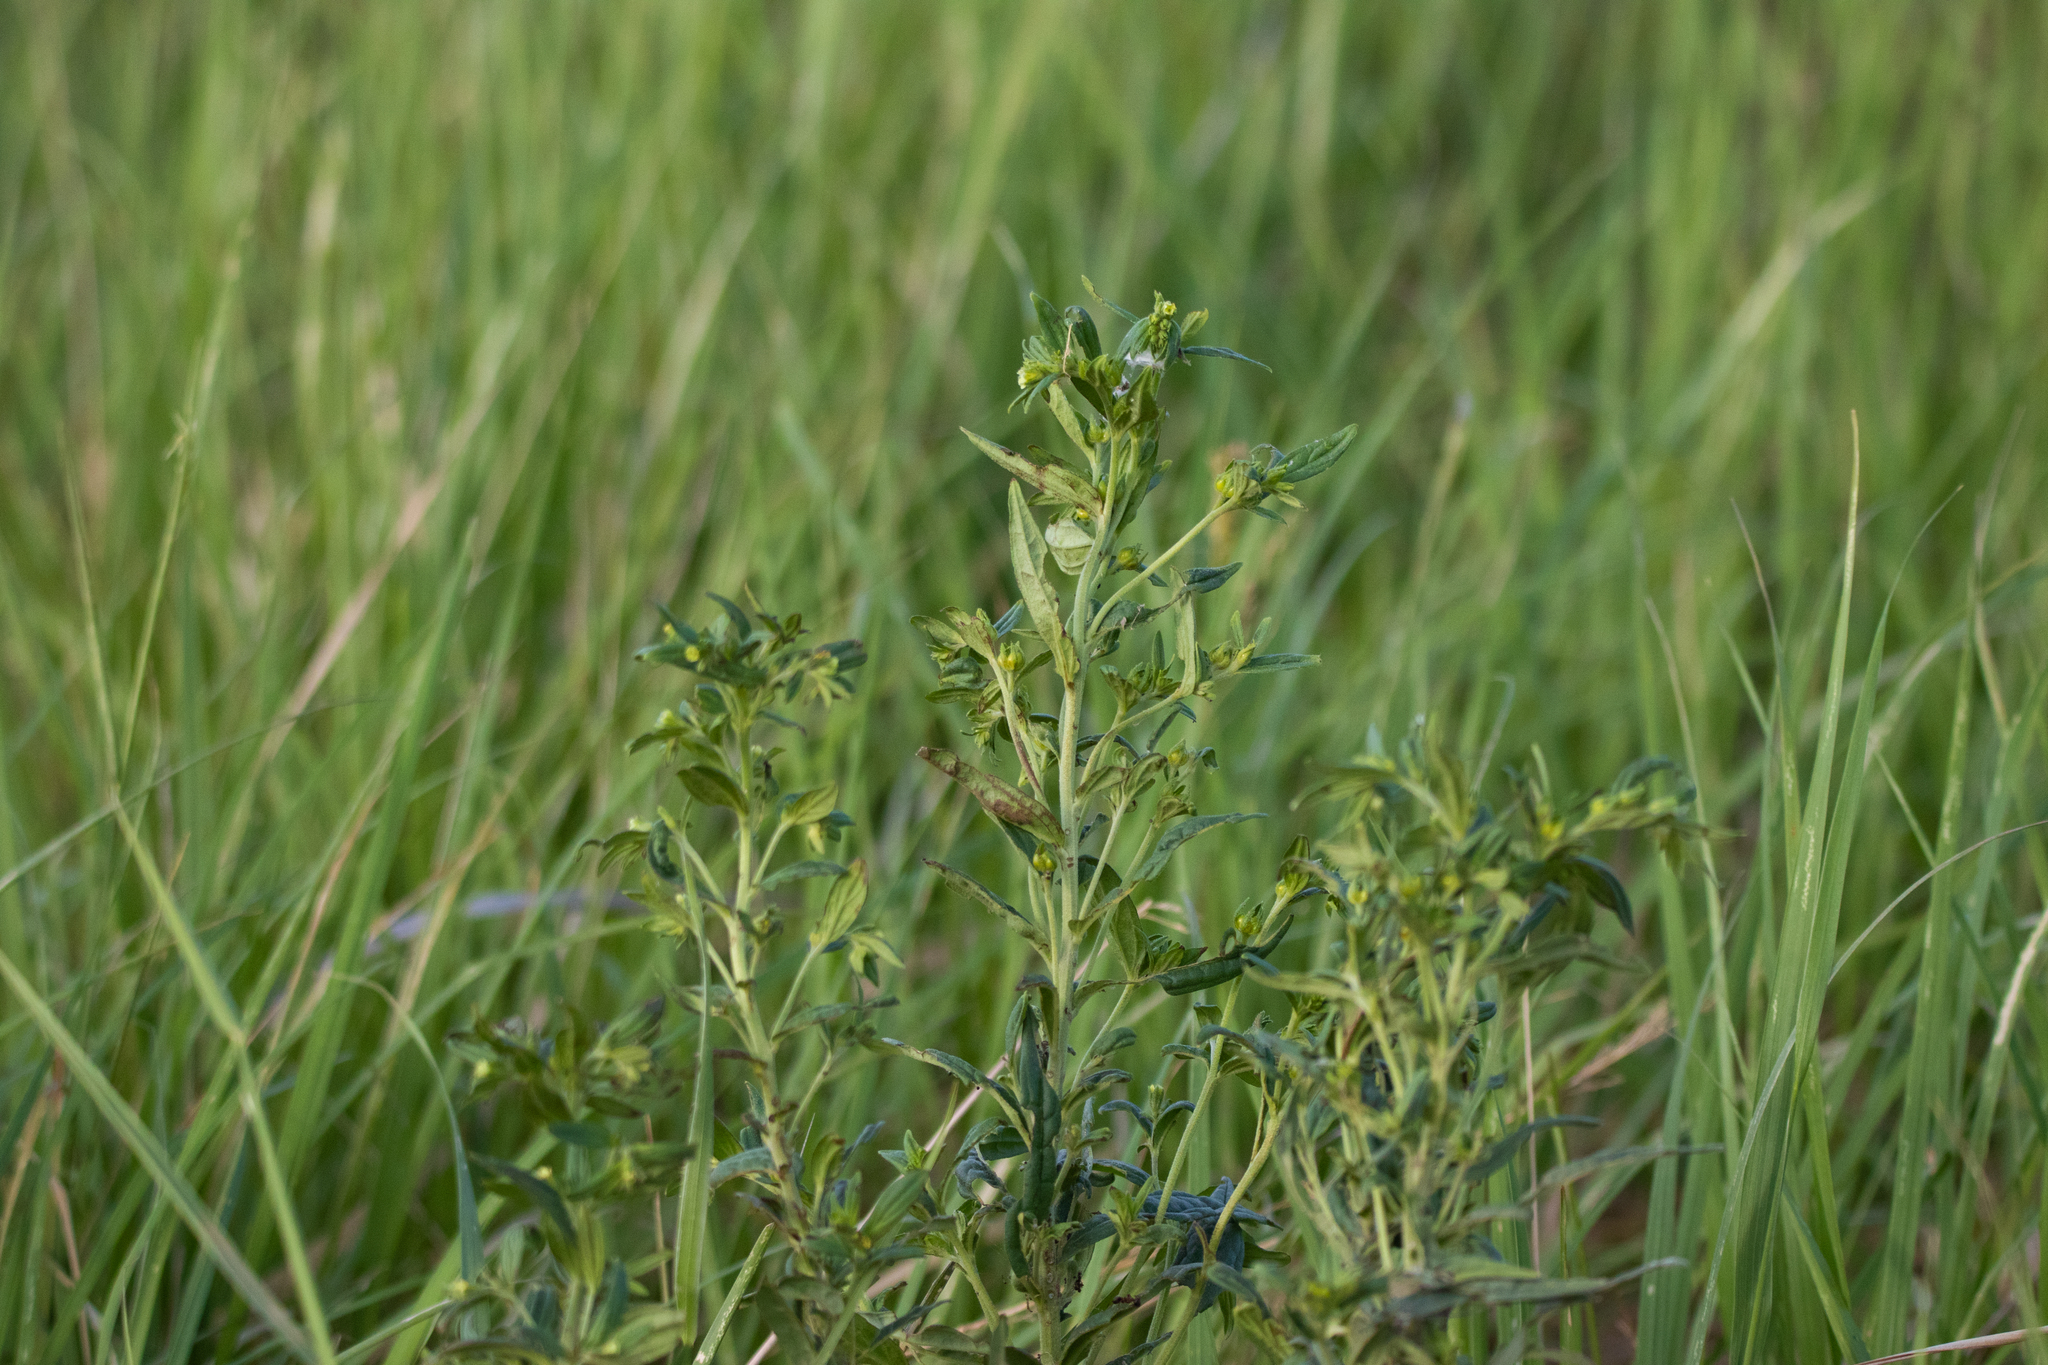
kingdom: Plantae
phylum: Tracheophyta
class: Magnoliopsida
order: Boraginales
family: Boraginaceae
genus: Lithospermum
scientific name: Lithospermum officinale
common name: Common gromwell
